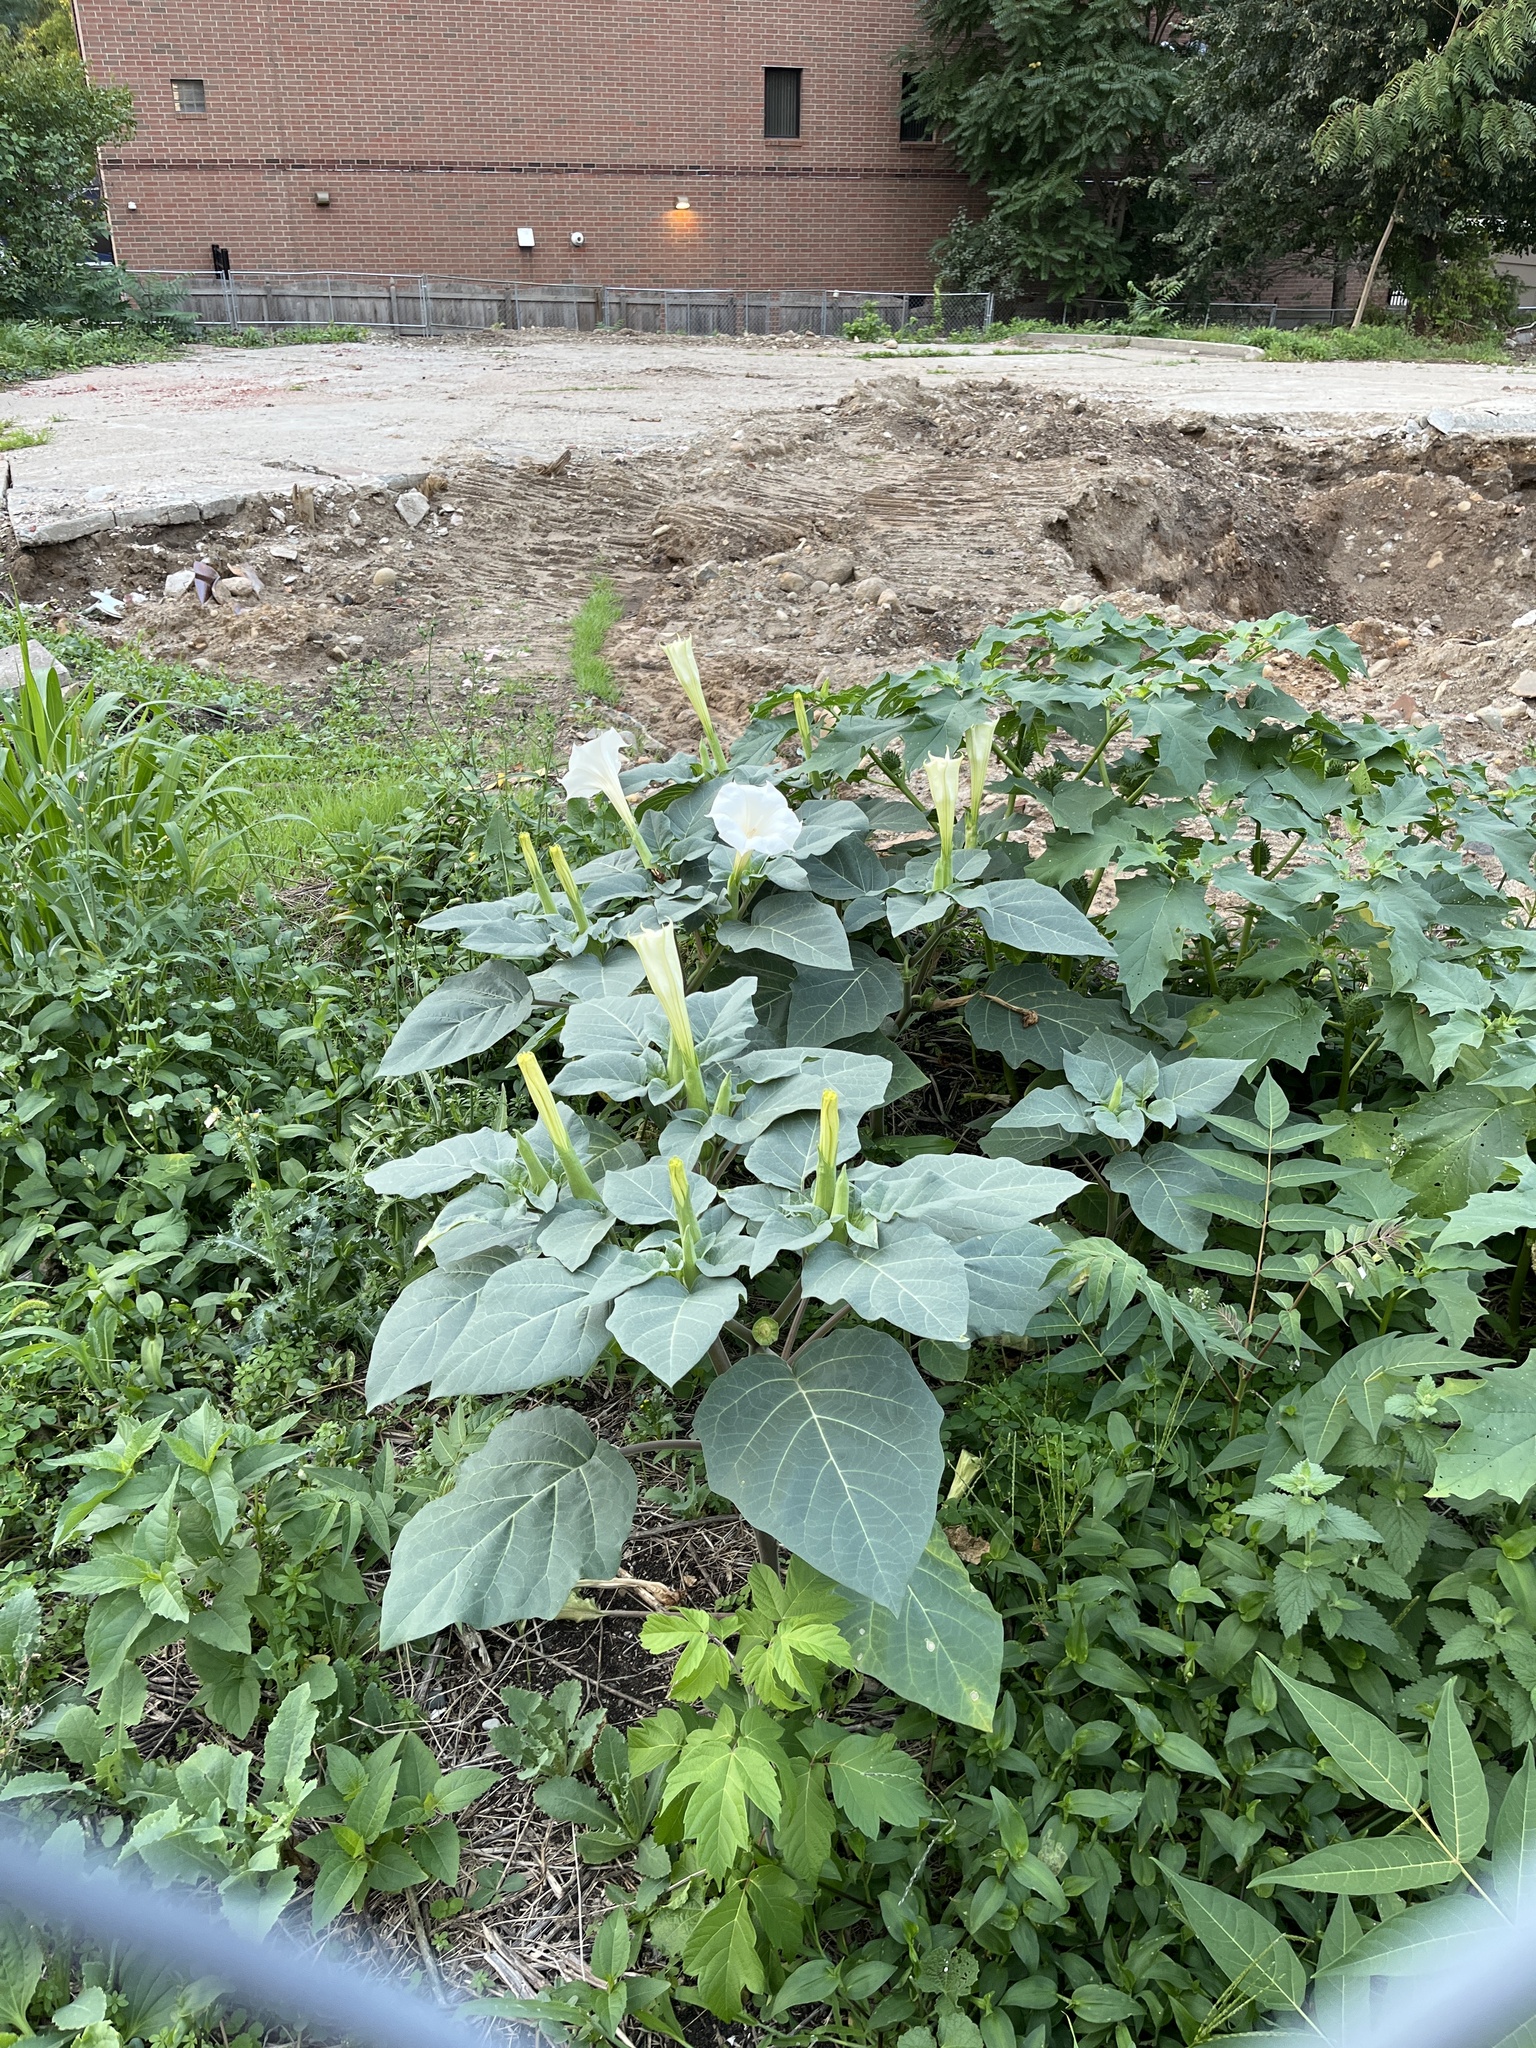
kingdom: Plantae
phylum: Tracheophyta
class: Magnoliopsida
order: Solanales
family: Solanaceae
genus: Datura
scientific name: Datura innoxia
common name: Downy thorn-apple
